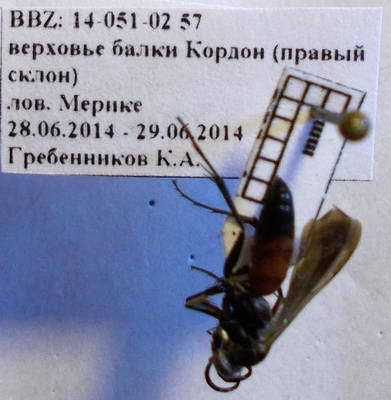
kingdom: Animalia
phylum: Arthropoda
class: Insecta
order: Hymenoptera
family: Pompilidae
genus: Evagetes
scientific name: Evagetes pectinipes
